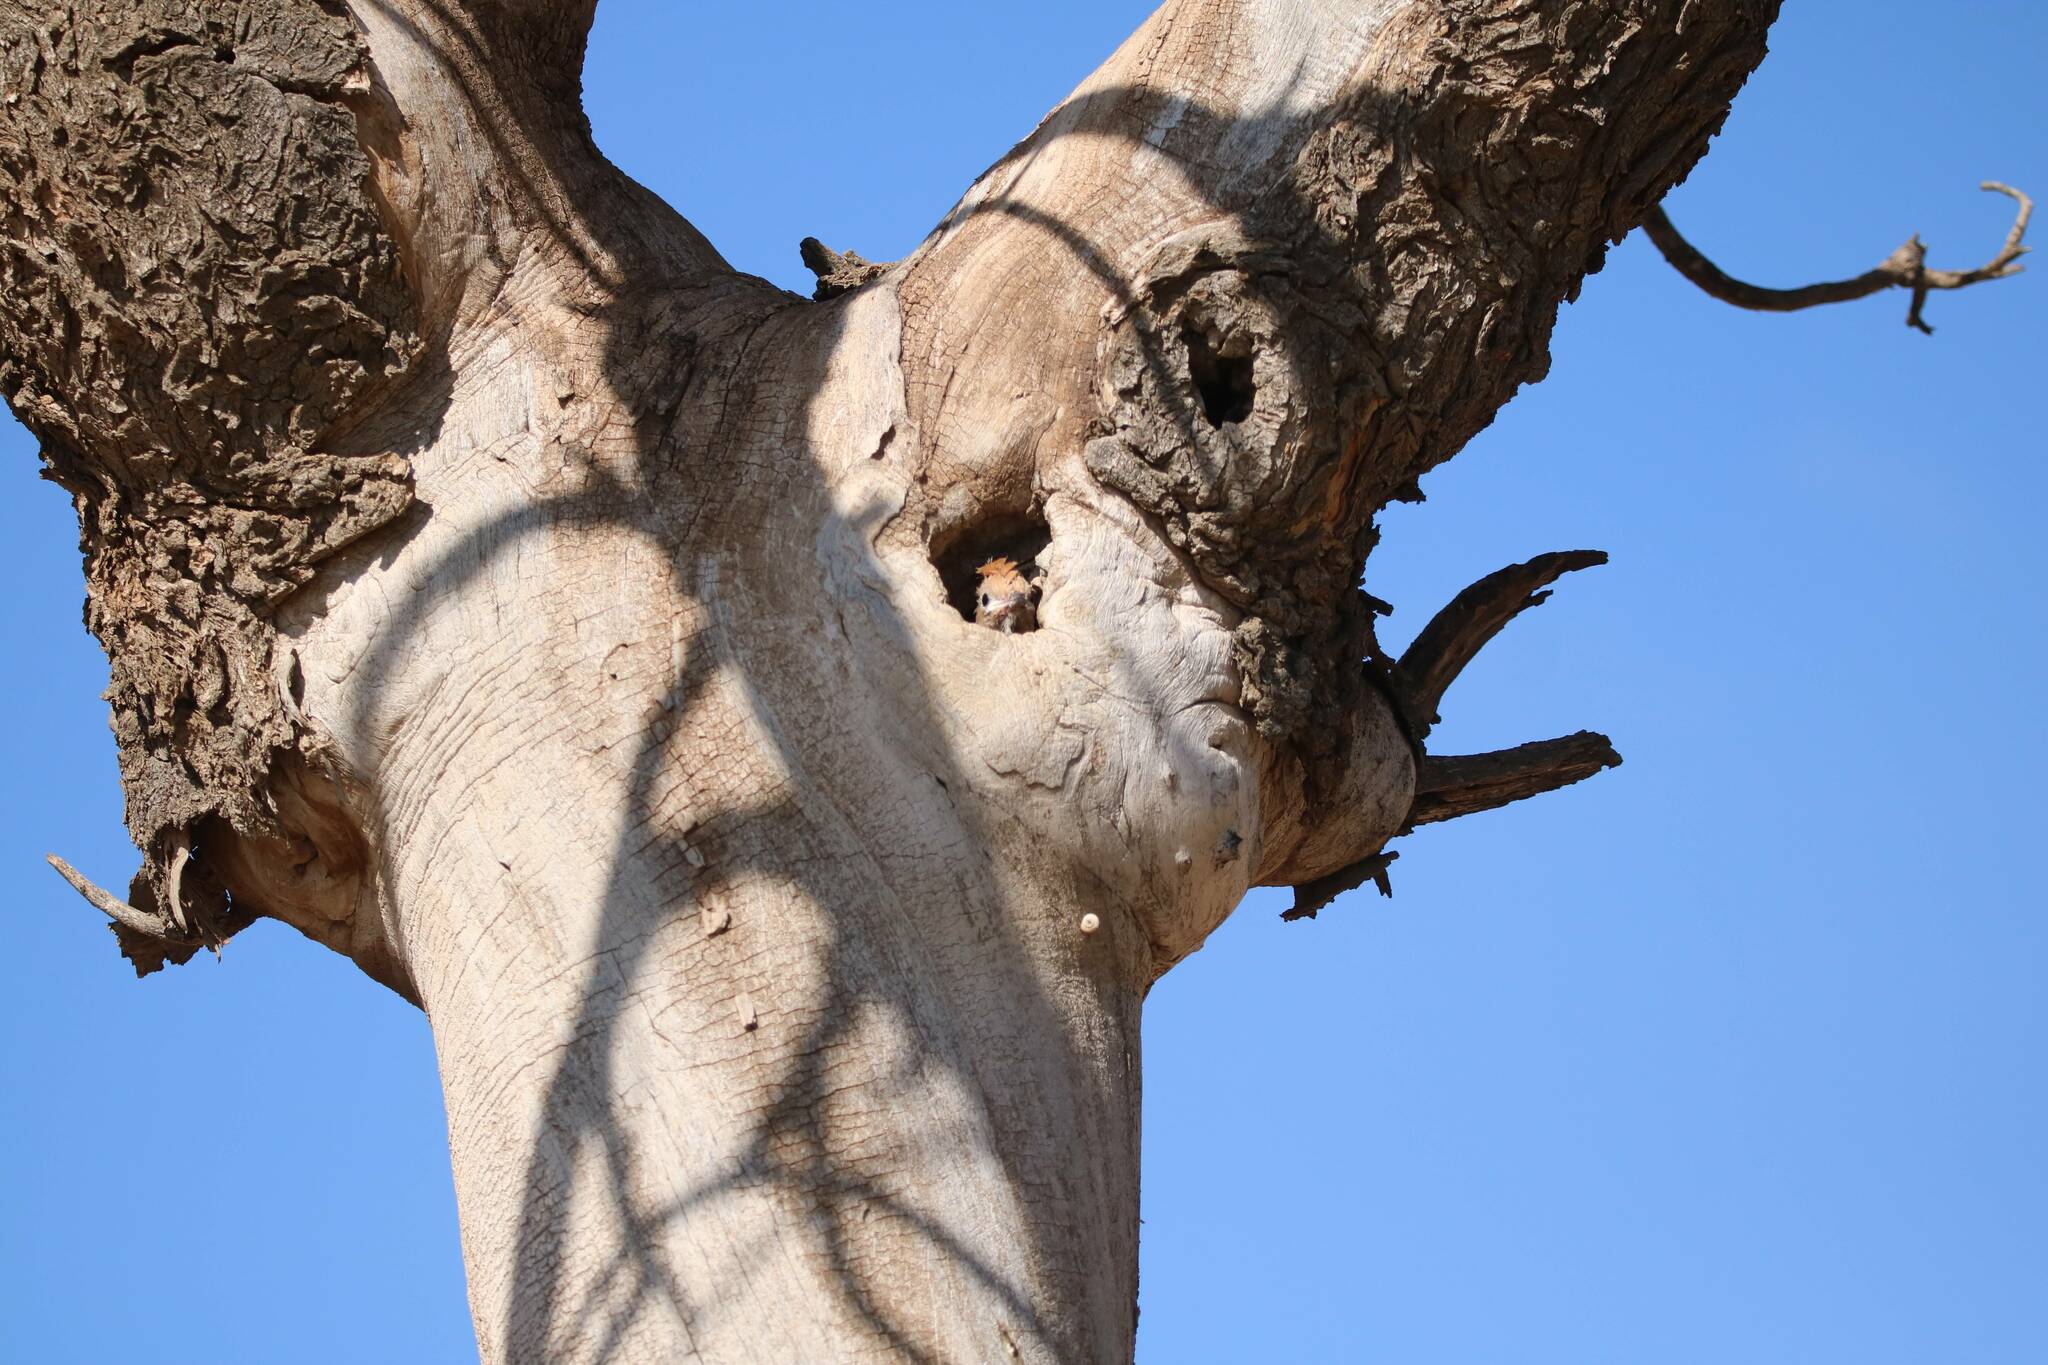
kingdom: Animalia
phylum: Chordata
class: Aves
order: Bucerotiformes
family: Upupidae
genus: Upupa
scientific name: Upupa epops
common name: Eurasian hoopoe
